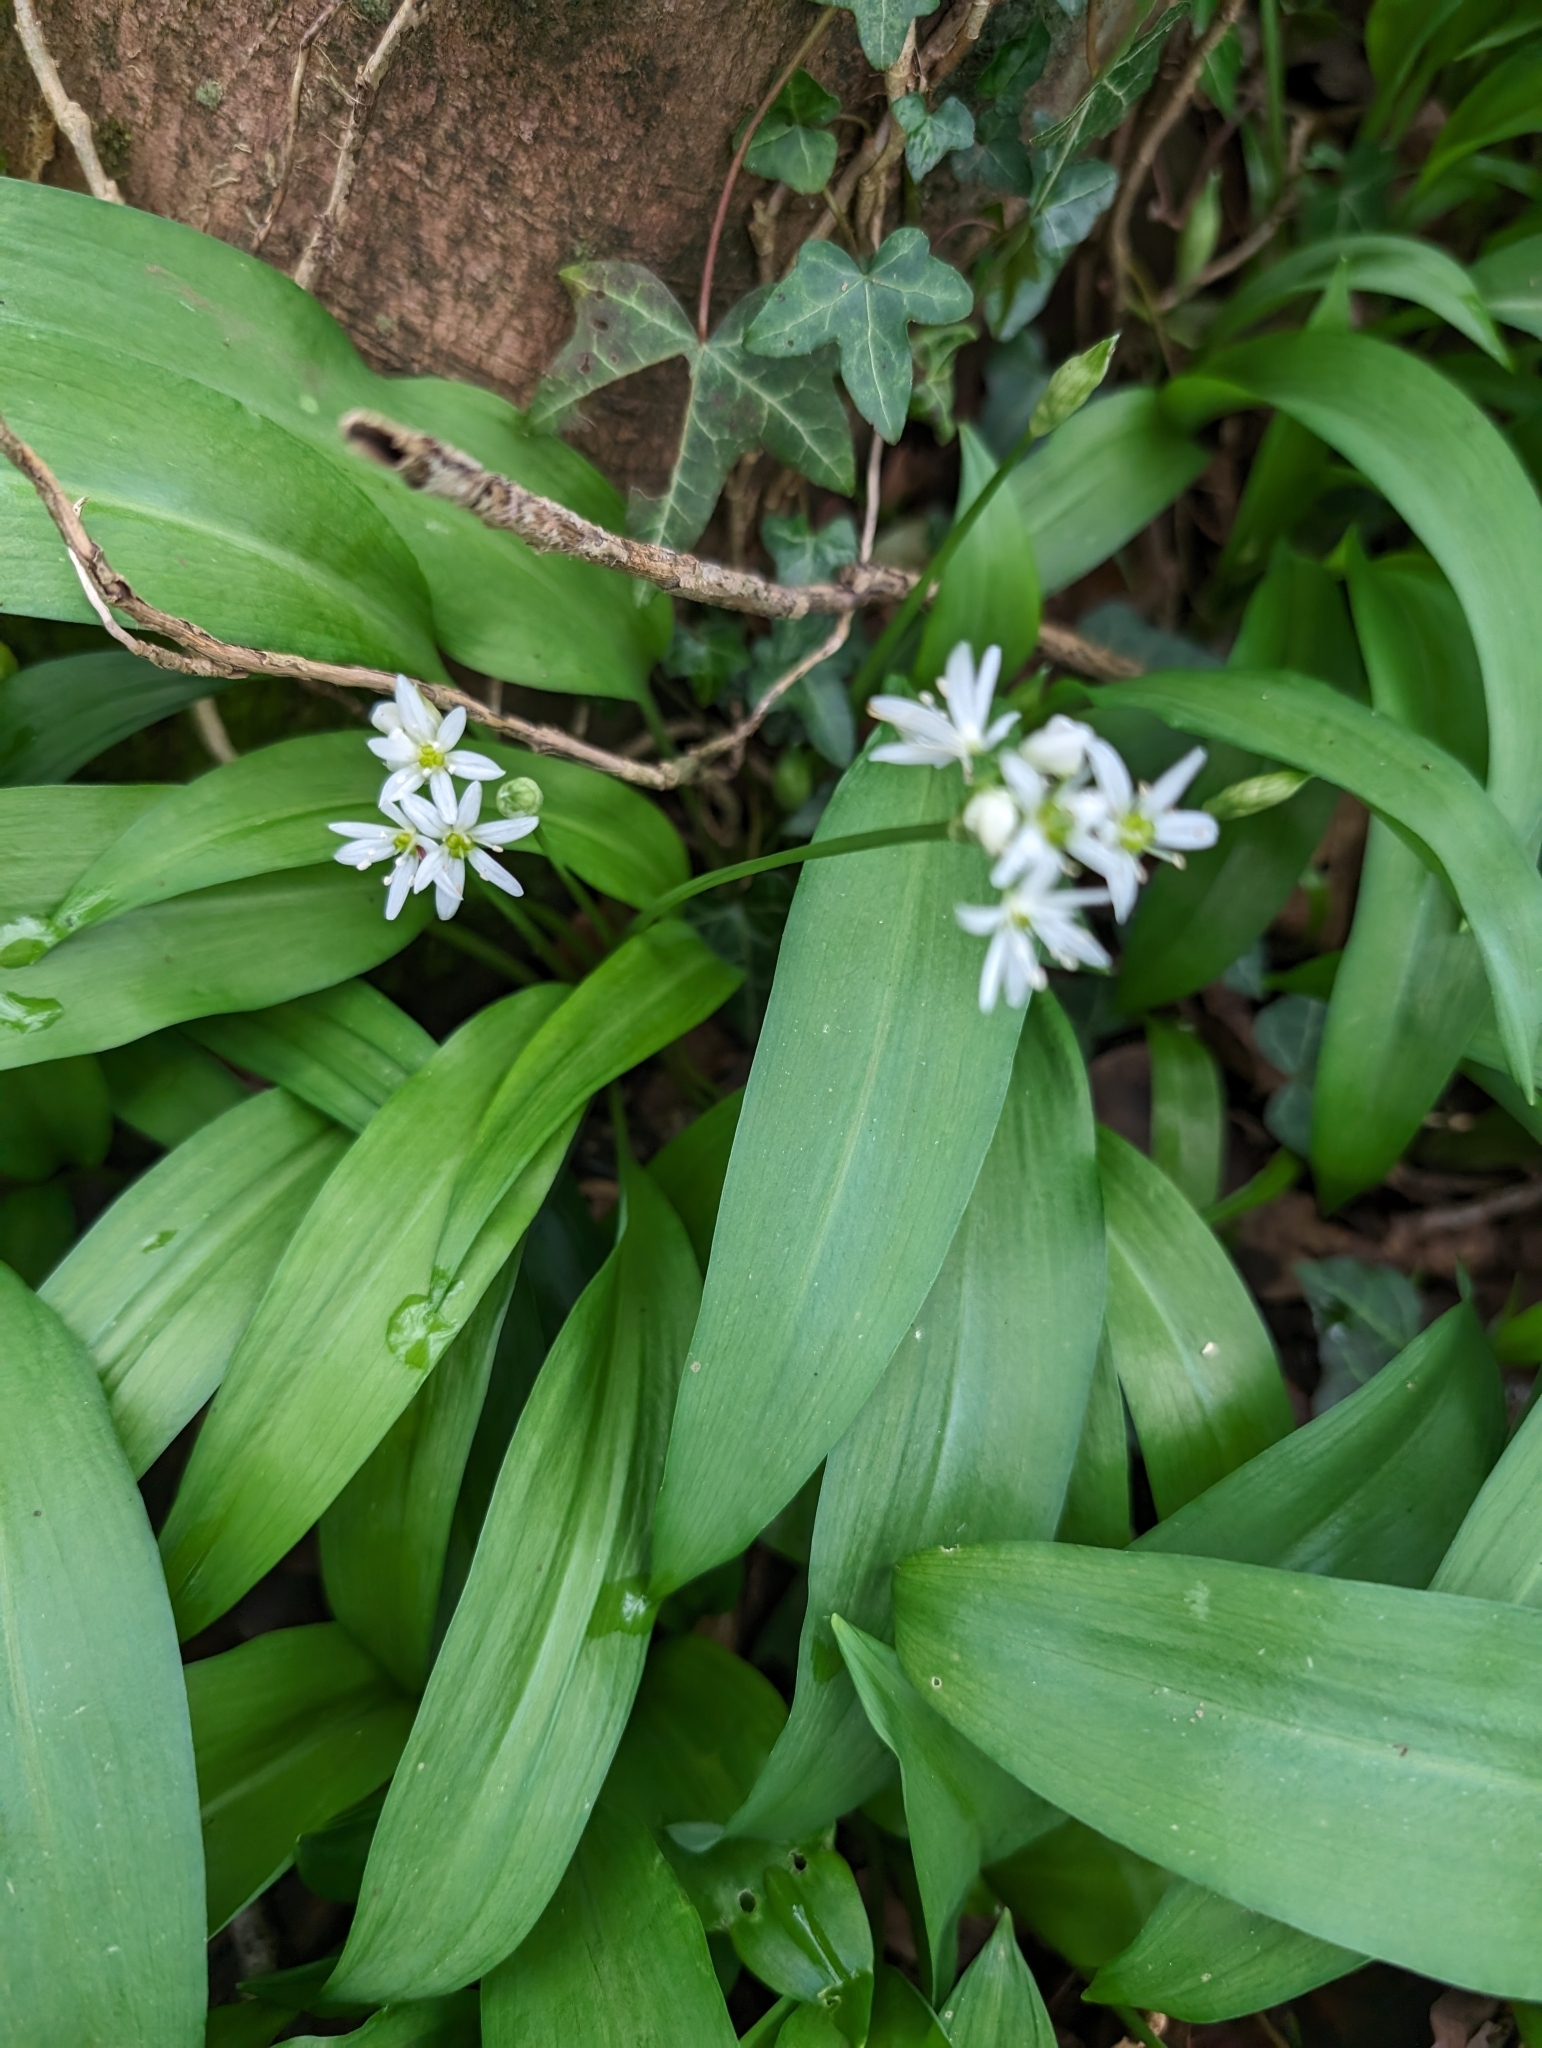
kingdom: Plantae
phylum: Tracheophyta
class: Liliopsida
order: Asparagales
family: Amaryllidaceae
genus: Allium
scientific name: Allium ursinum
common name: Ramsons
